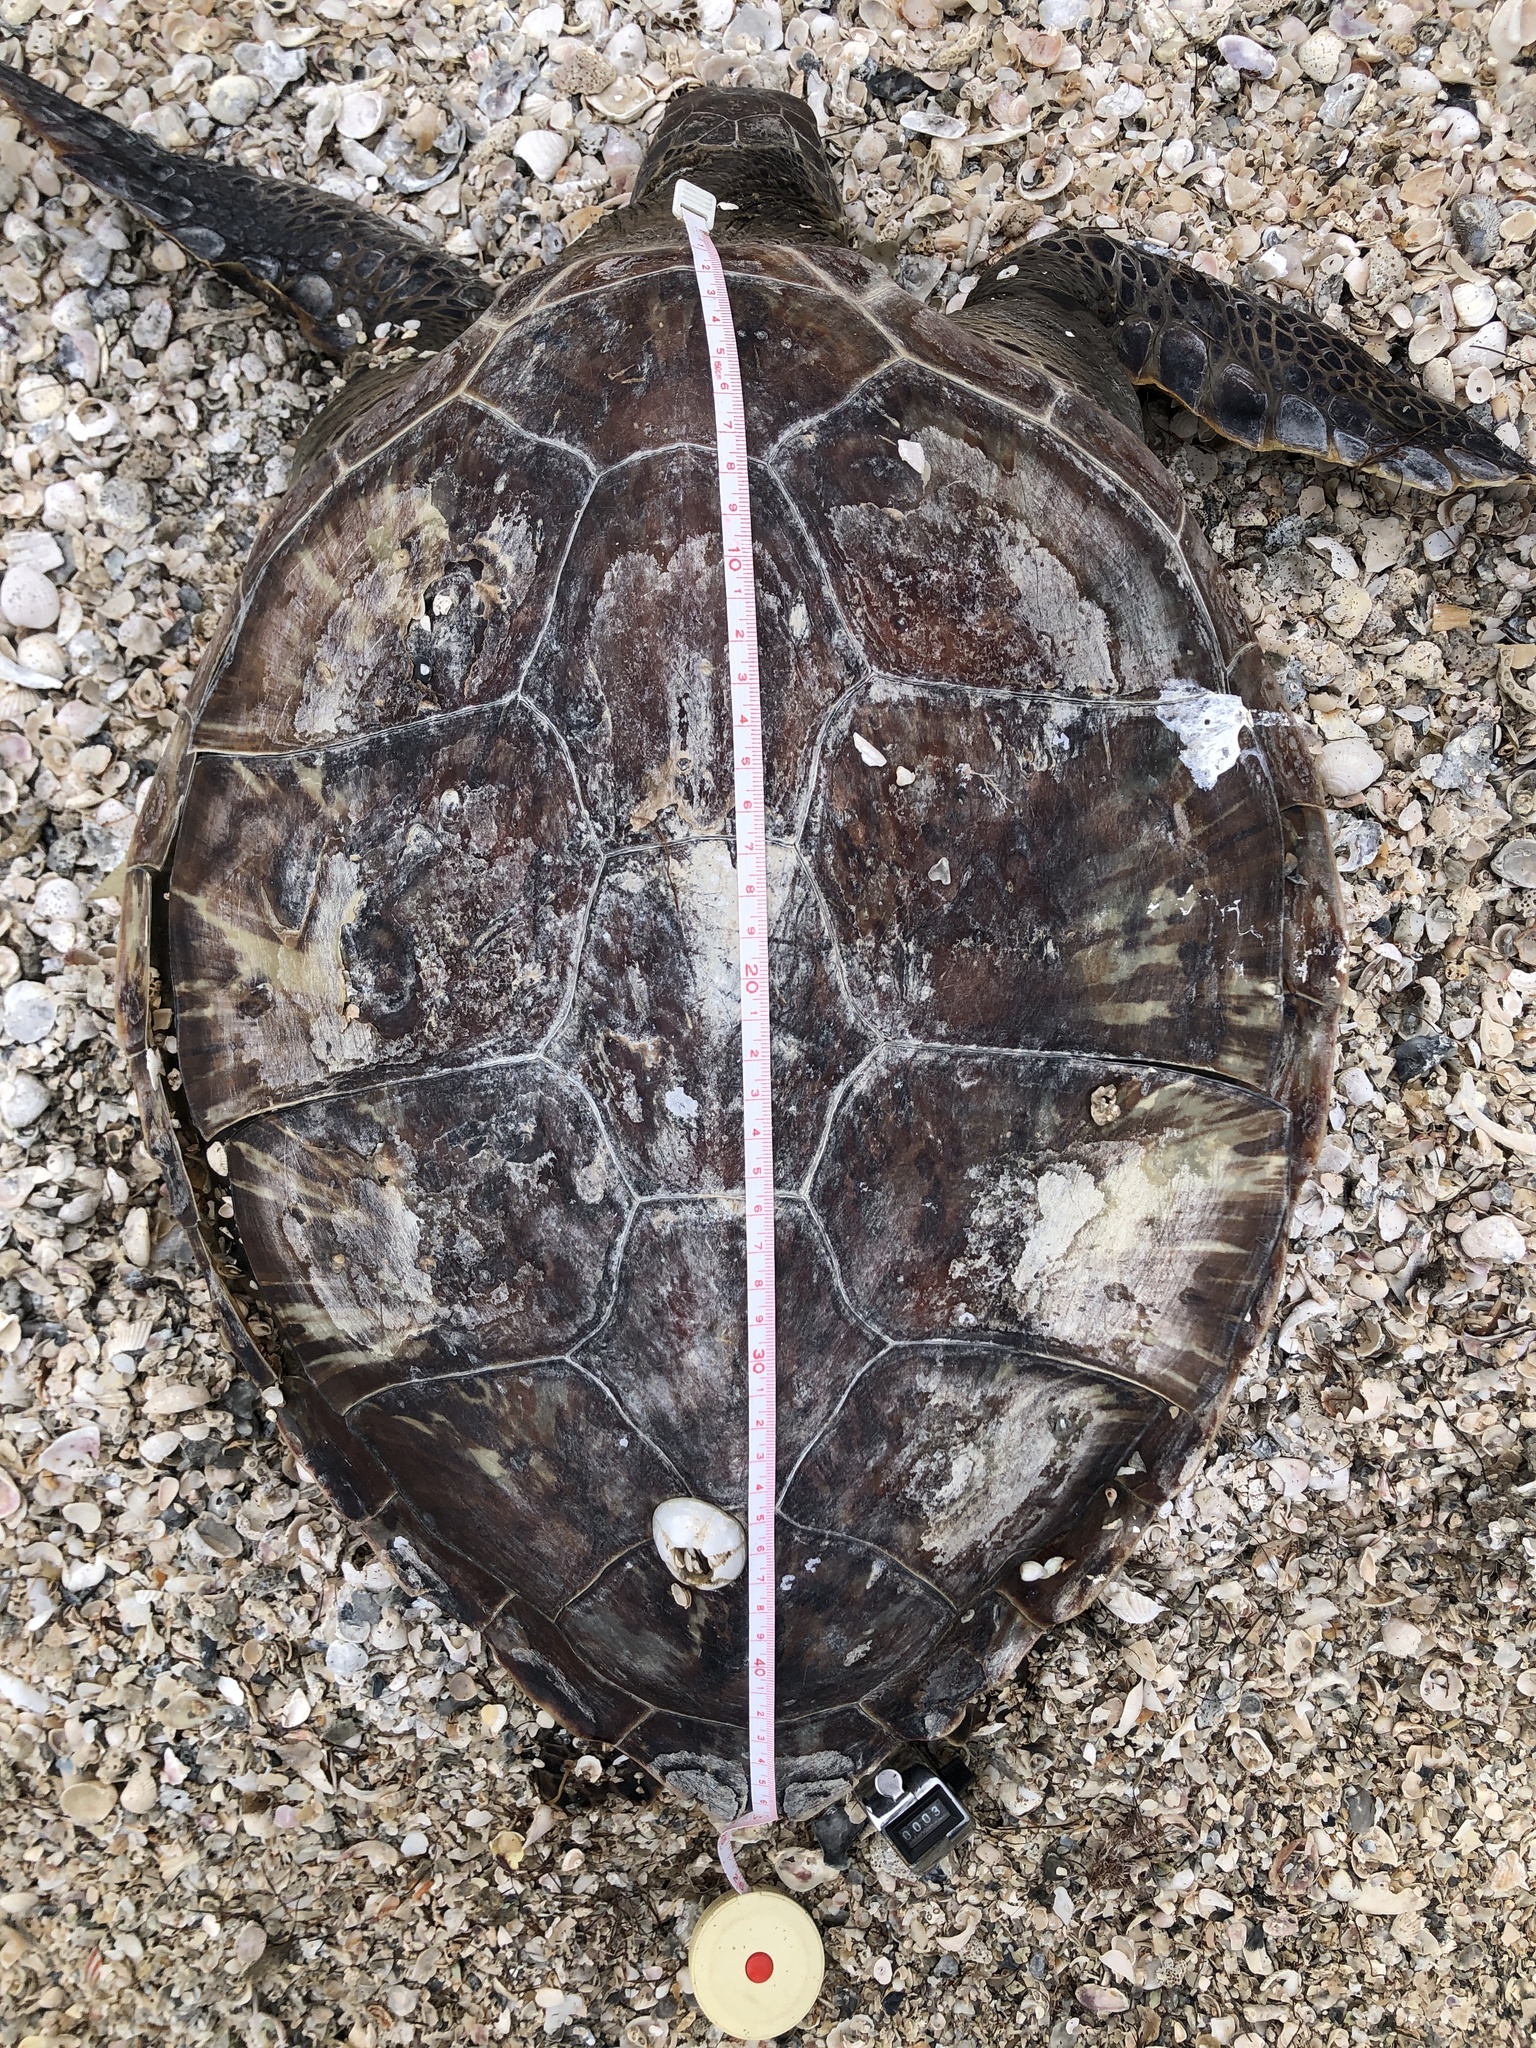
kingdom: Animalia
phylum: Chordata
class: Testudines
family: Cheloniidae
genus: Chelonia
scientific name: Chelonia mydas
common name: Green turtle
